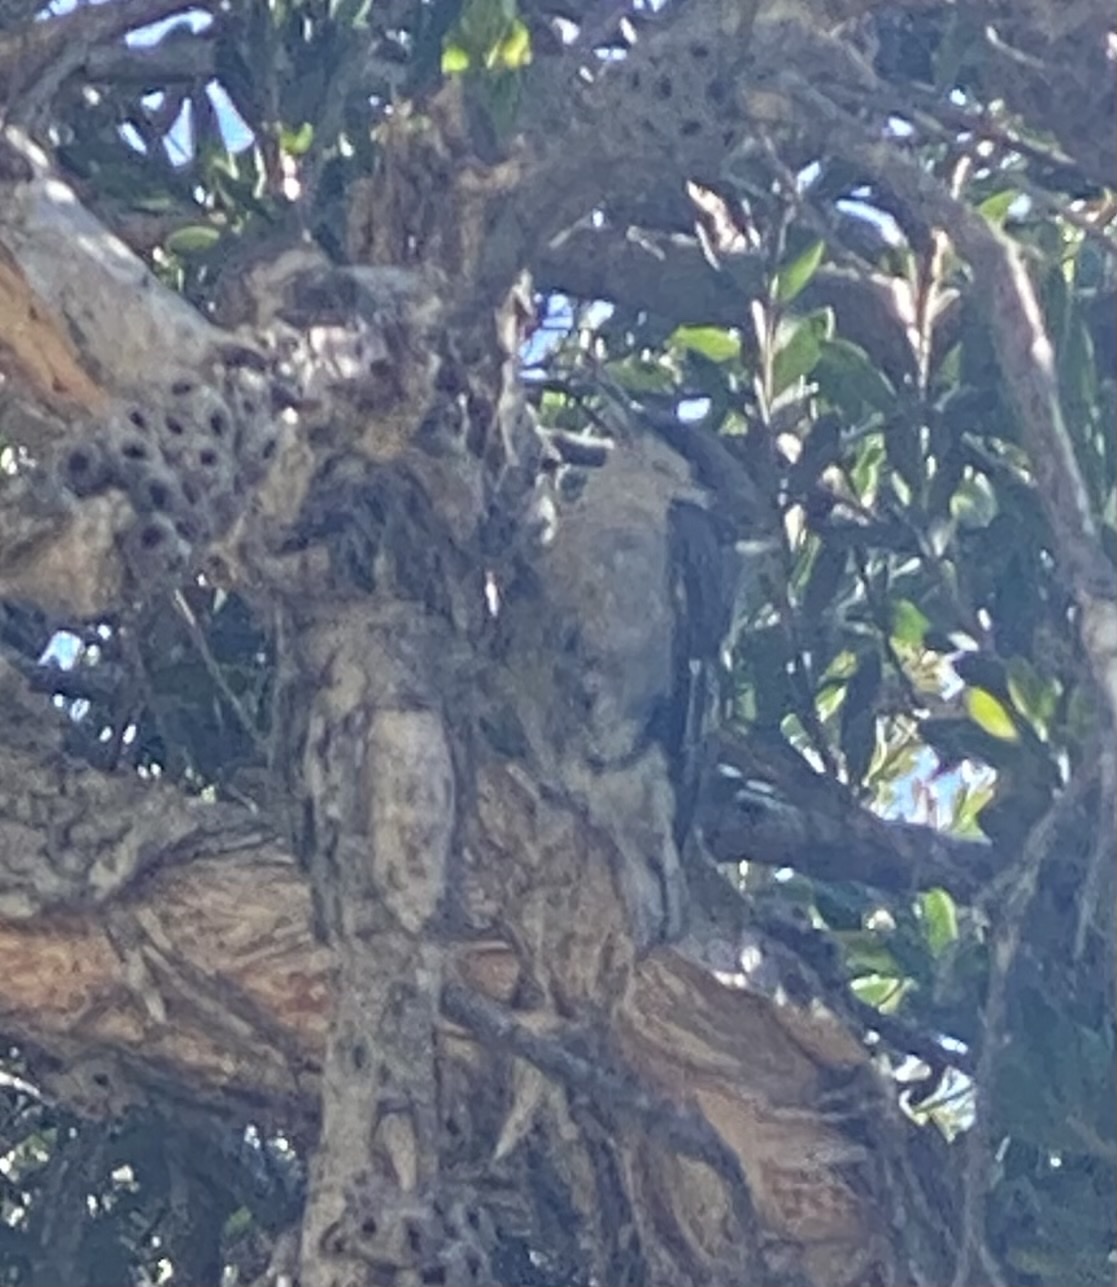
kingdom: Animalia
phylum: Chordata
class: Aves
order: Passeriformes
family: Sittidae
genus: Sitta
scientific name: Sitta pygmaea
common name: Pygmy nuthatch
